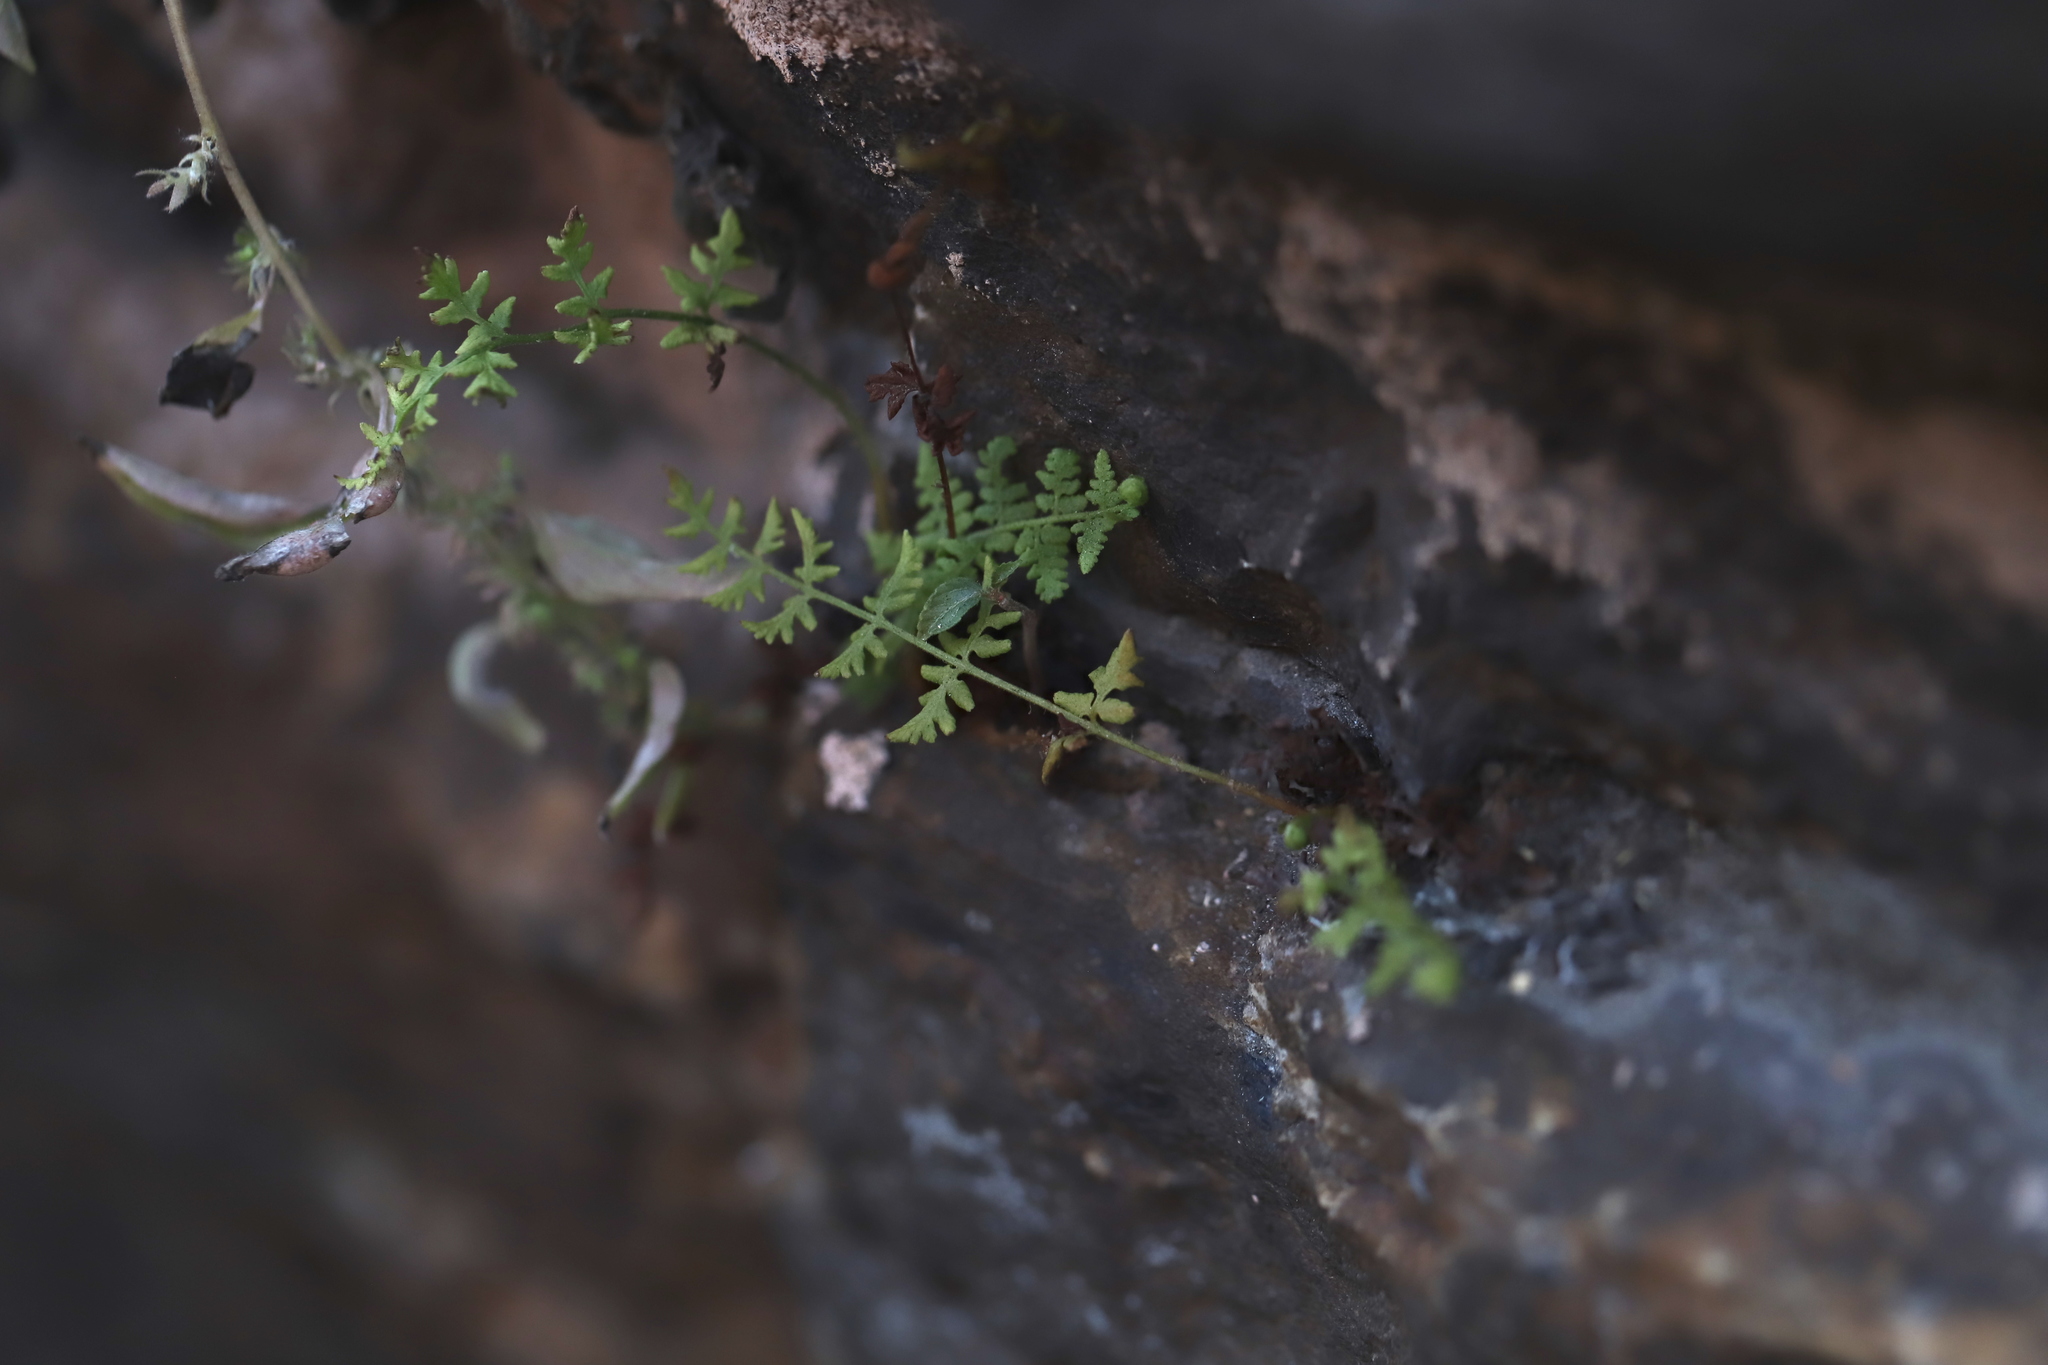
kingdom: Plantae
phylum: Tracheophyta
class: Polypodiopsida
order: Polypodiales
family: Woodsiaceae
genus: Physematium
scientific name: Physematium obtusum
